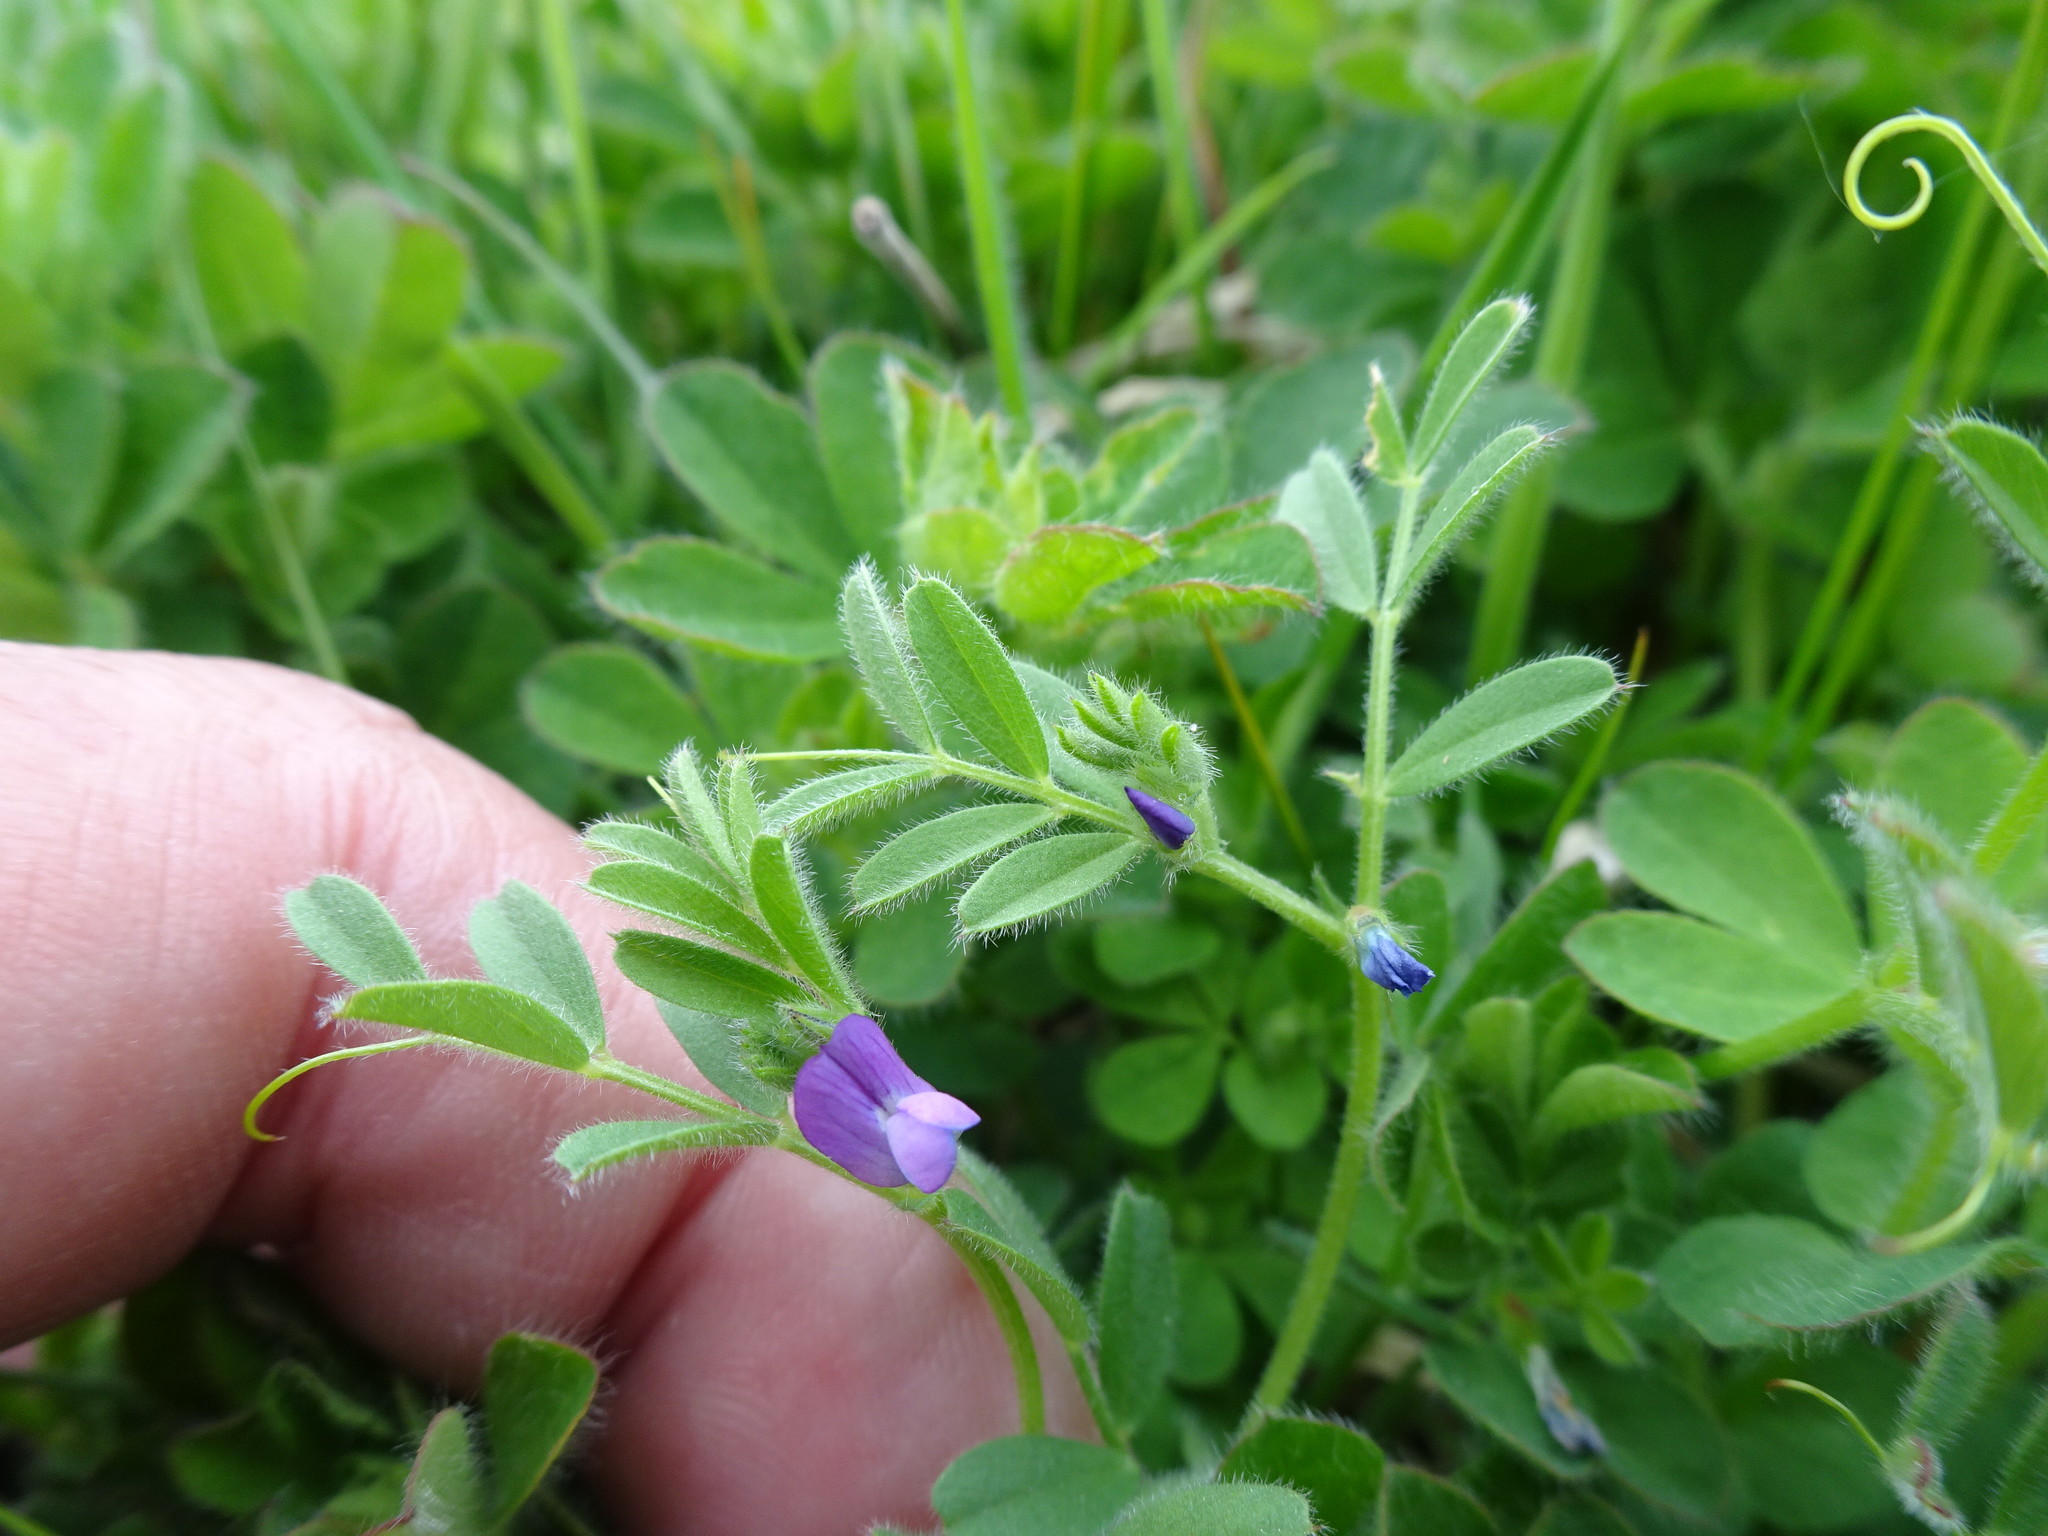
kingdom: Plantae
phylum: Tracheophyta
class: Magnoliopsida
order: Fabales
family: Fabaceae
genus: Vicia
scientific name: Vicia sativa
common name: Garden vetch
